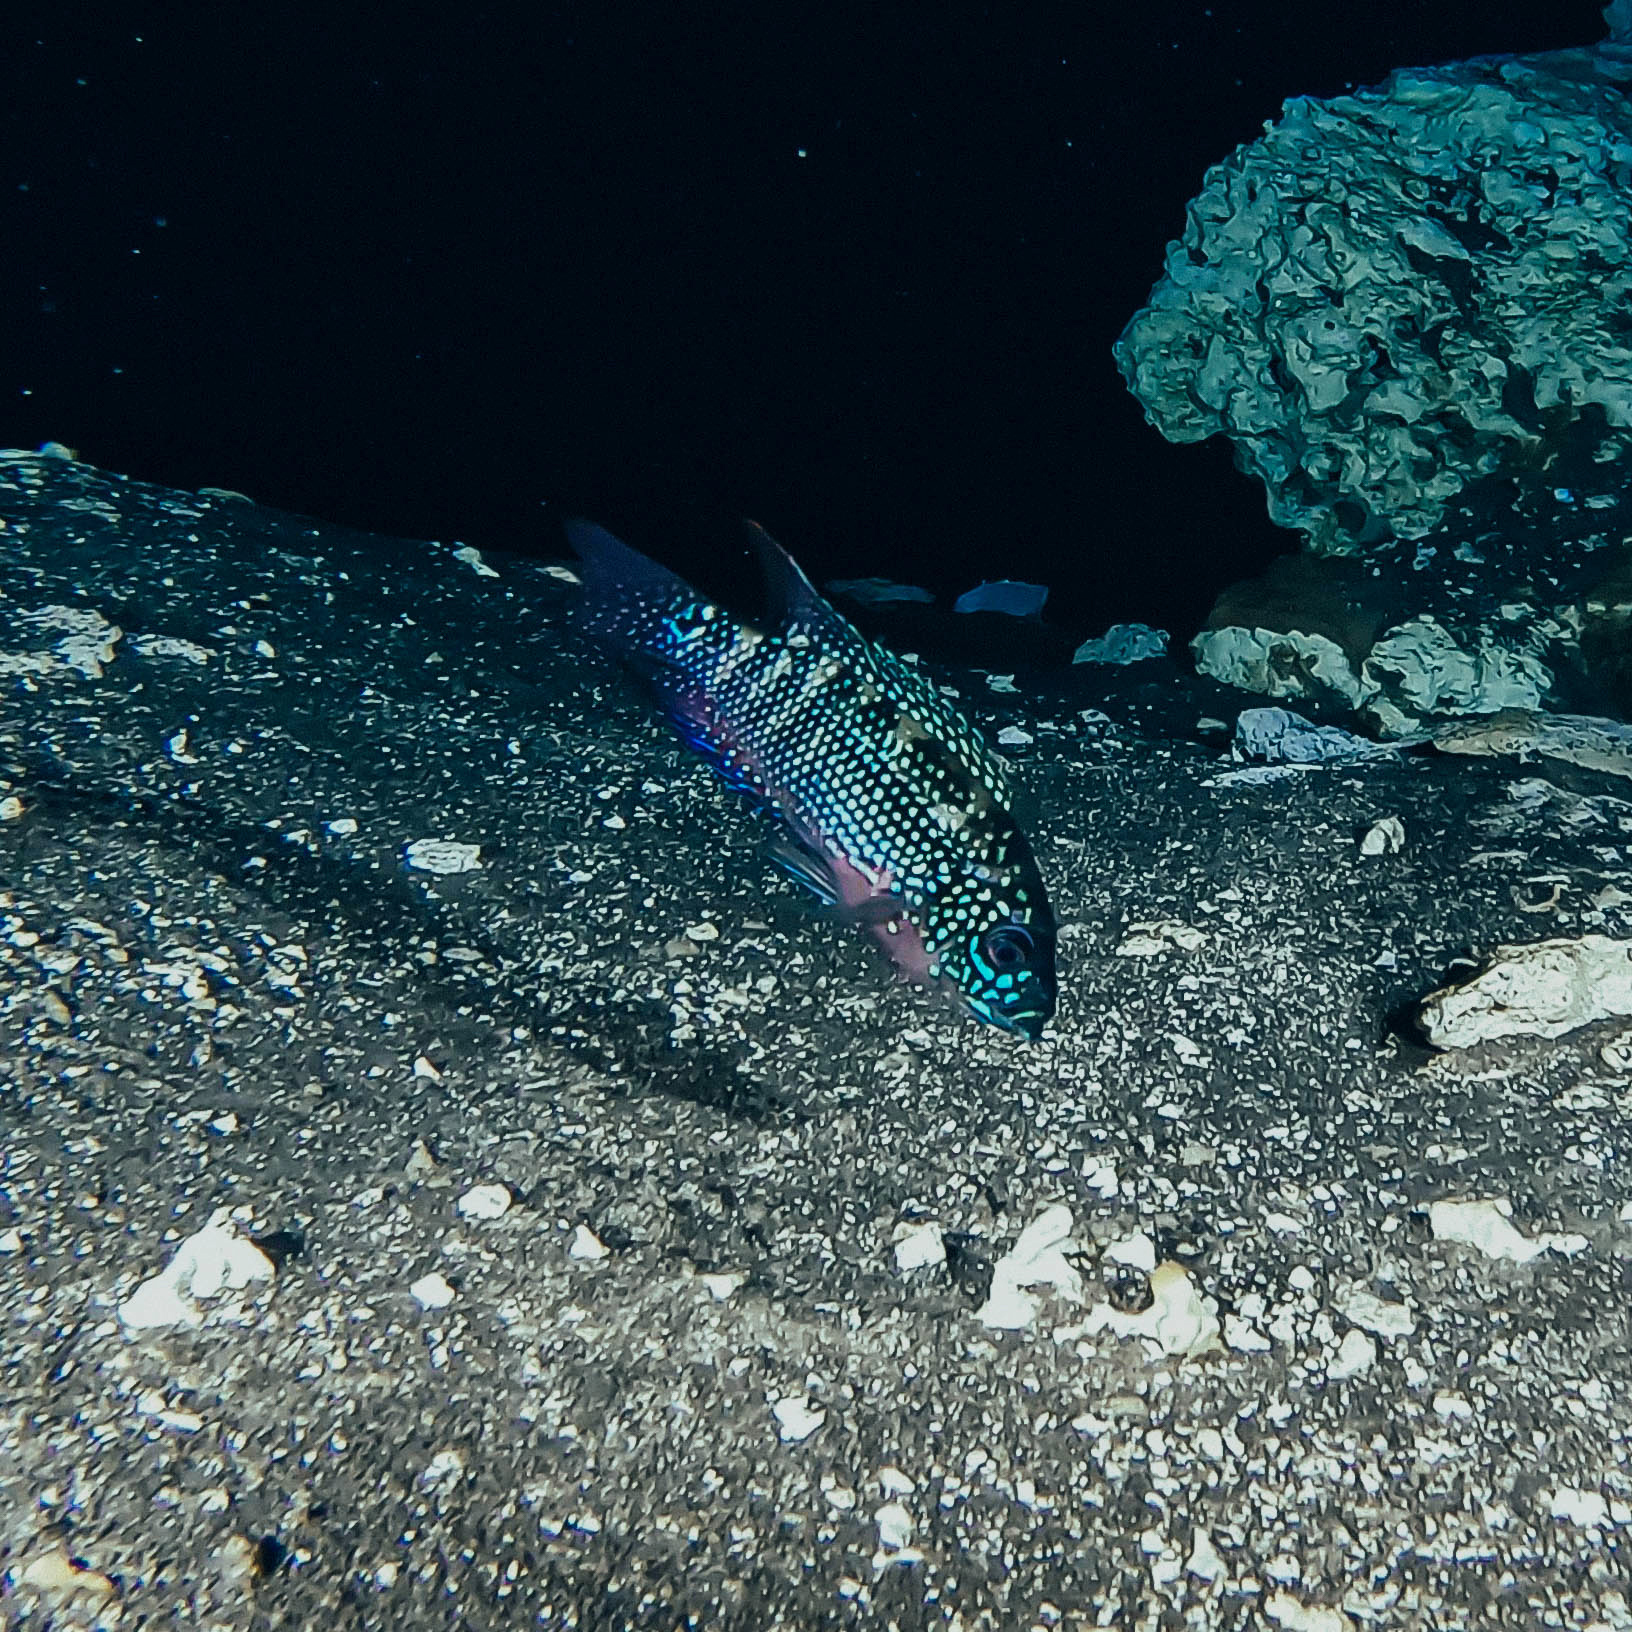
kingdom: Animalia
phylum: Chordata
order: Perciformes
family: Cichlidae
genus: Rocio
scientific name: Rocio octofasciata
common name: Jack dempsey
